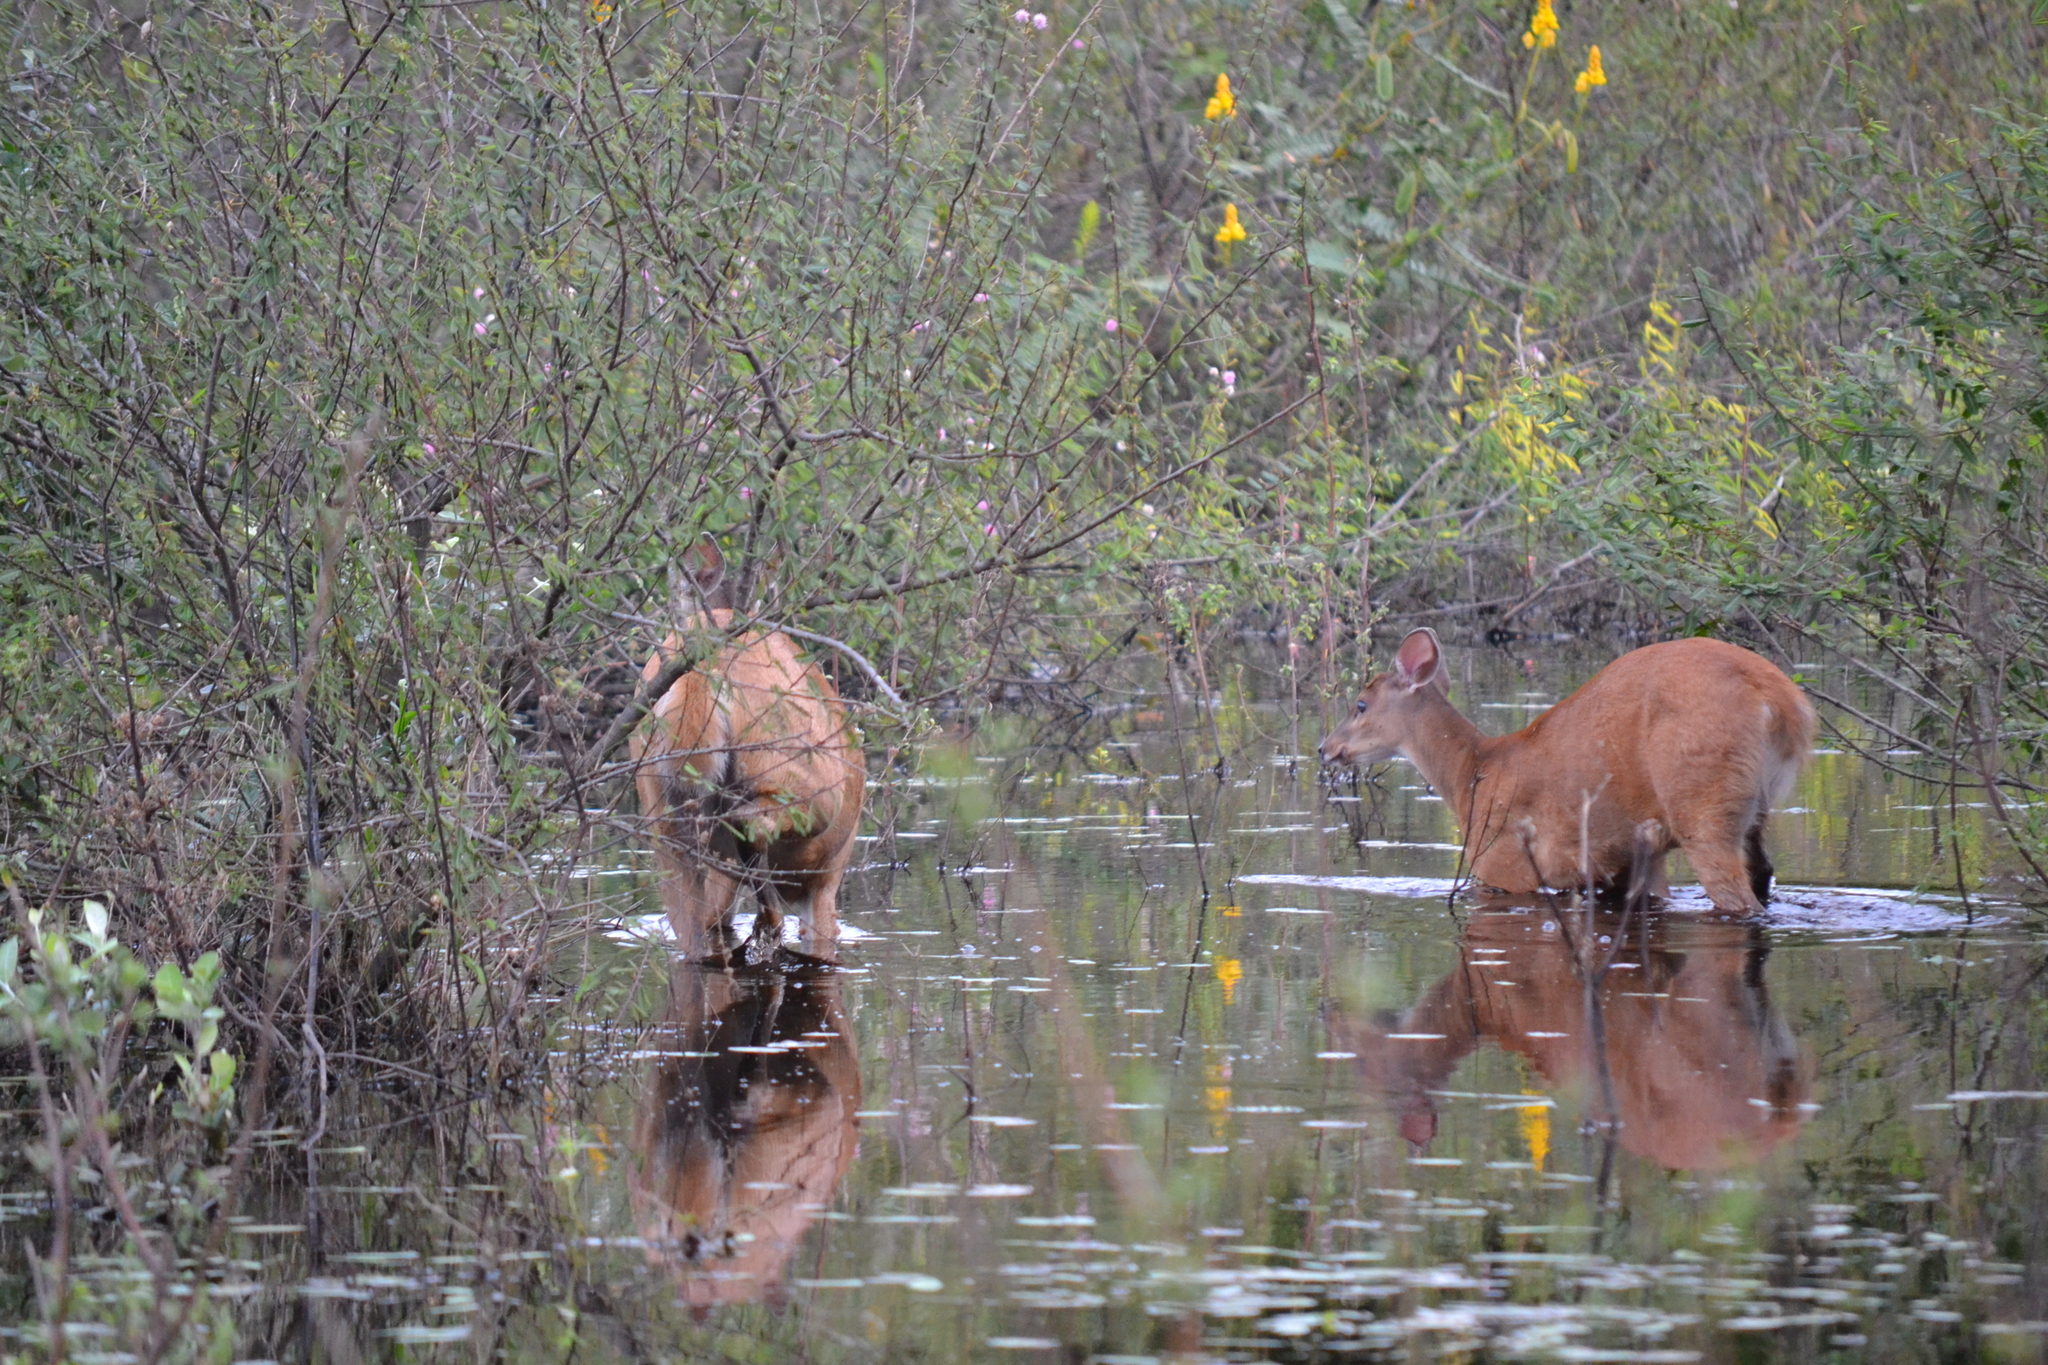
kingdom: Animalia
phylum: Chordata
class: Mammalia
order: Artiodactyla
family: Cervidae
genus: Blastocerus
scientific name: Blastocerus dichotomus
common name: Marsh deer
